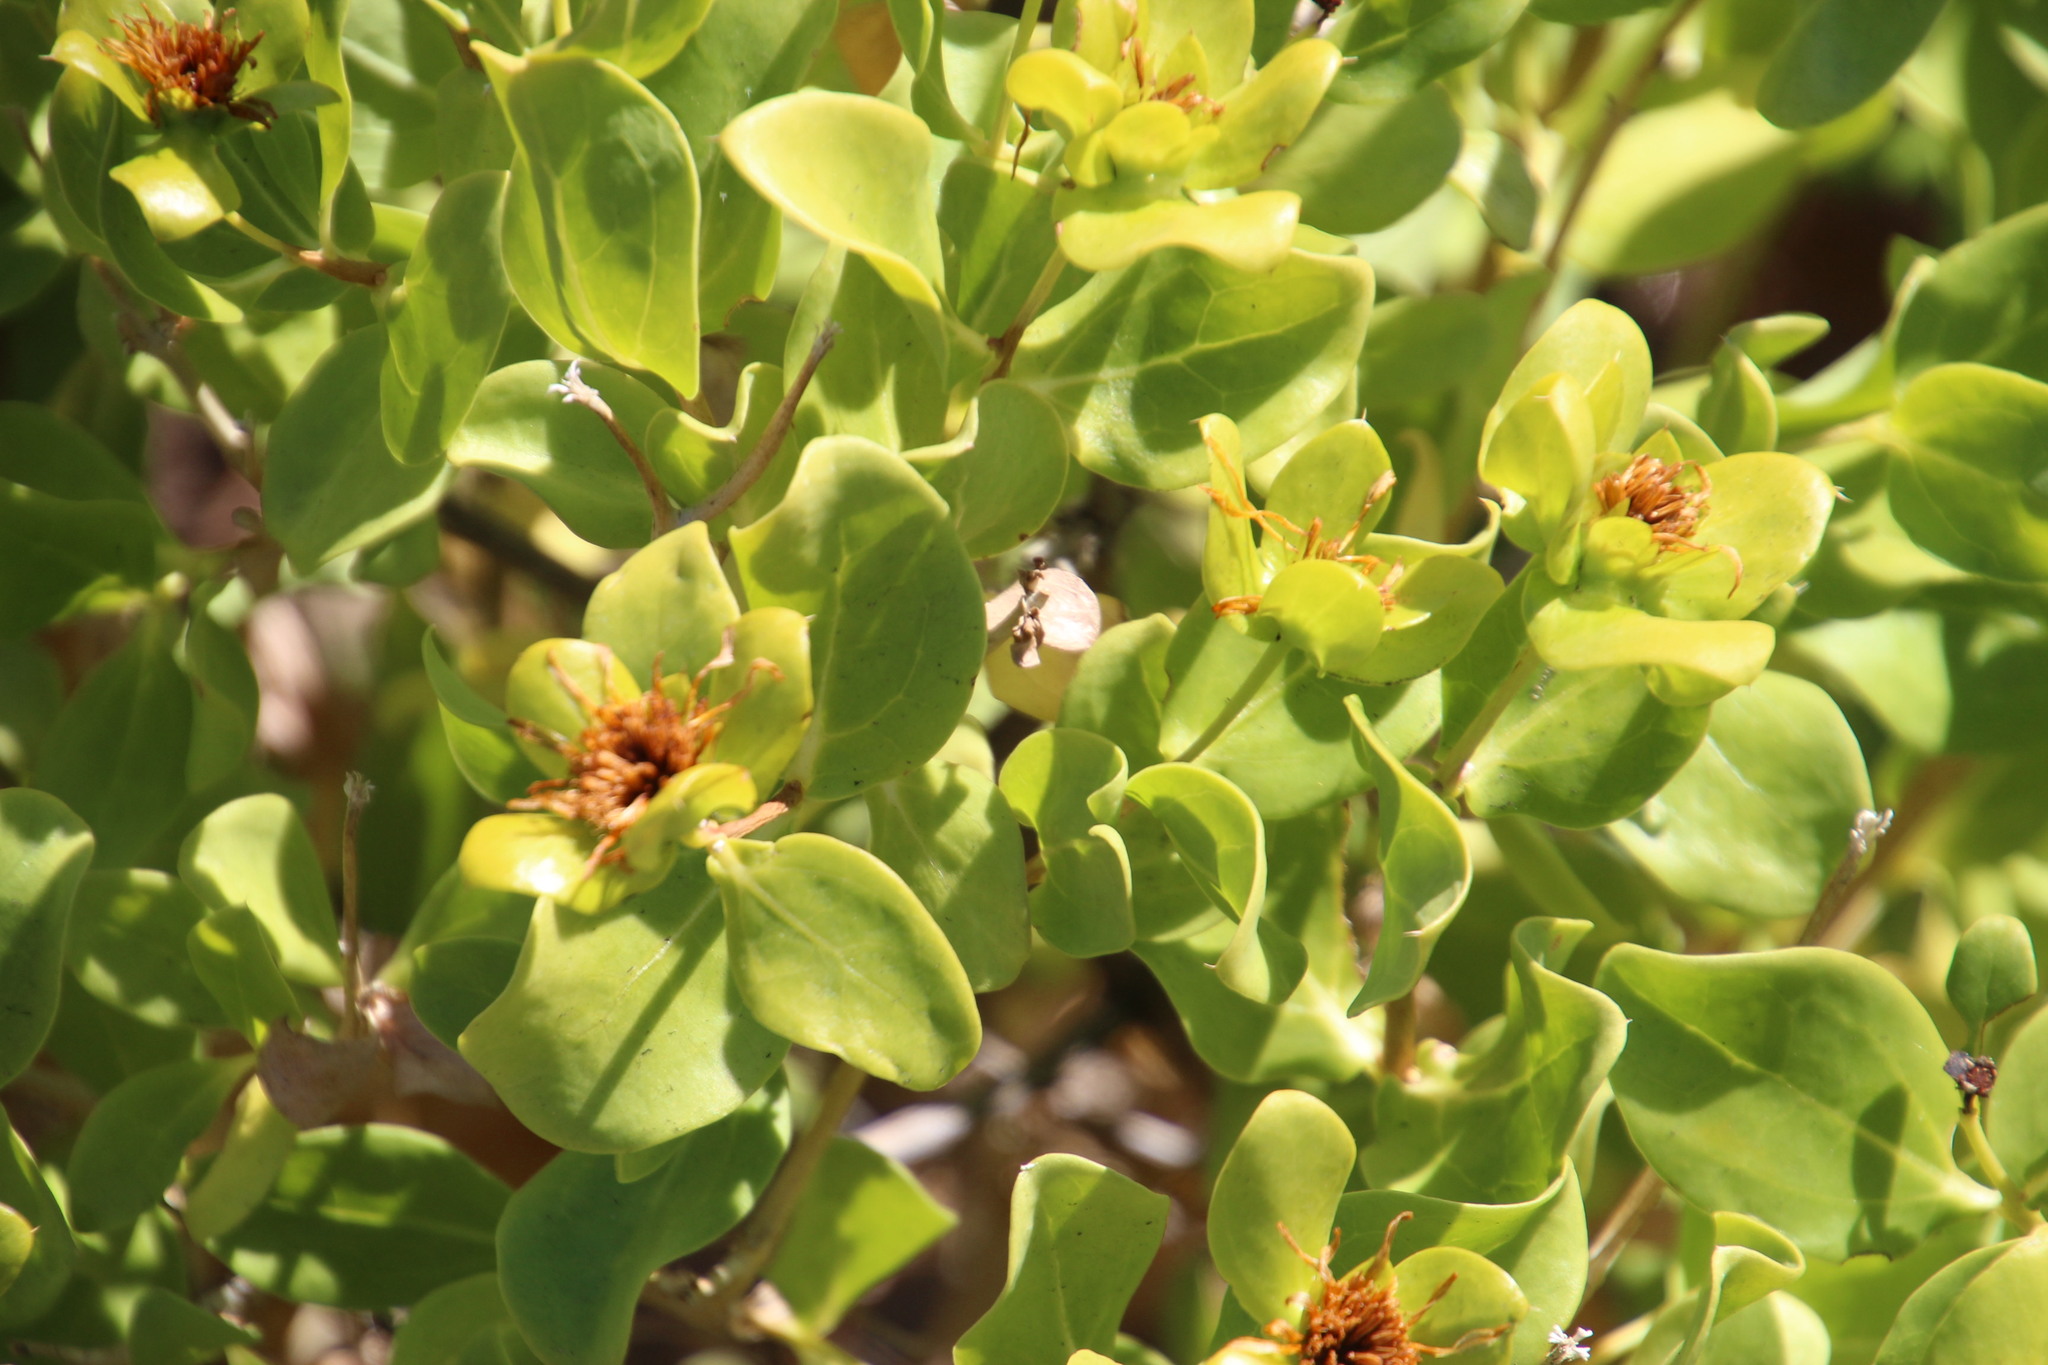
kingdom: Plantae
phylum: Tracheophyta
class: Magnoliopsida
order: Asterales
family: Asteraceae
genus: Didelta
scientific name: Didelta spinosa
